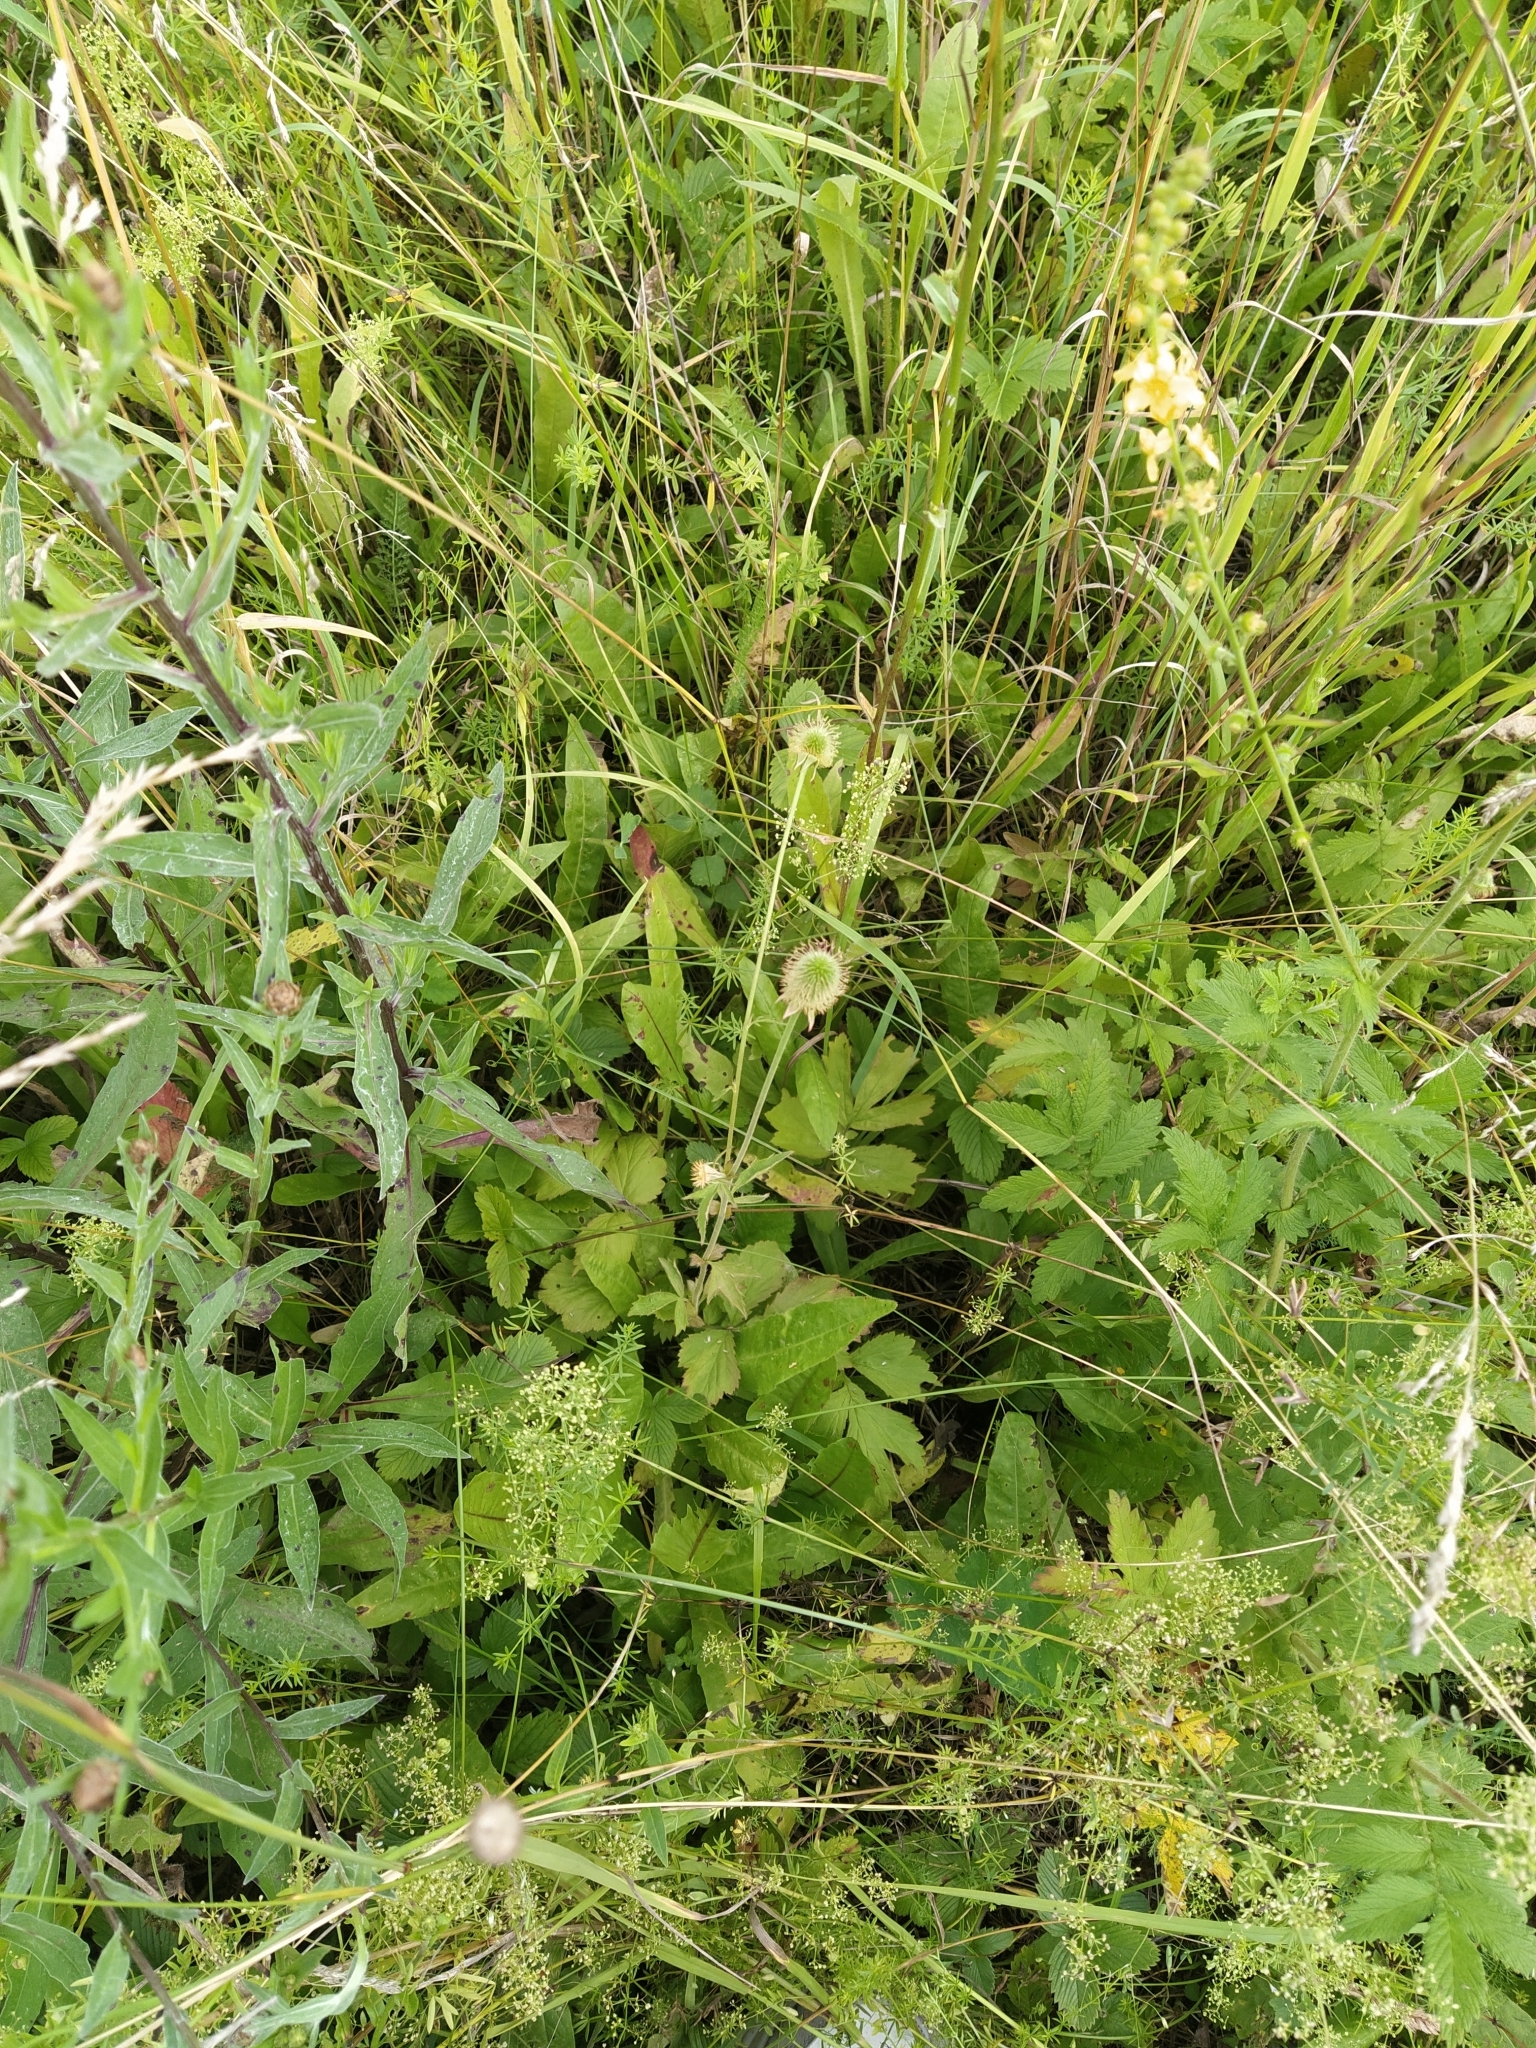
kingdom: Plantae
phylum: Tracheophyta
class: Magnoliopsida
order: Rosales
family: Rosaceae
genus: Geum
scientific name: Geum aleppicum
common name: Yellow avens
